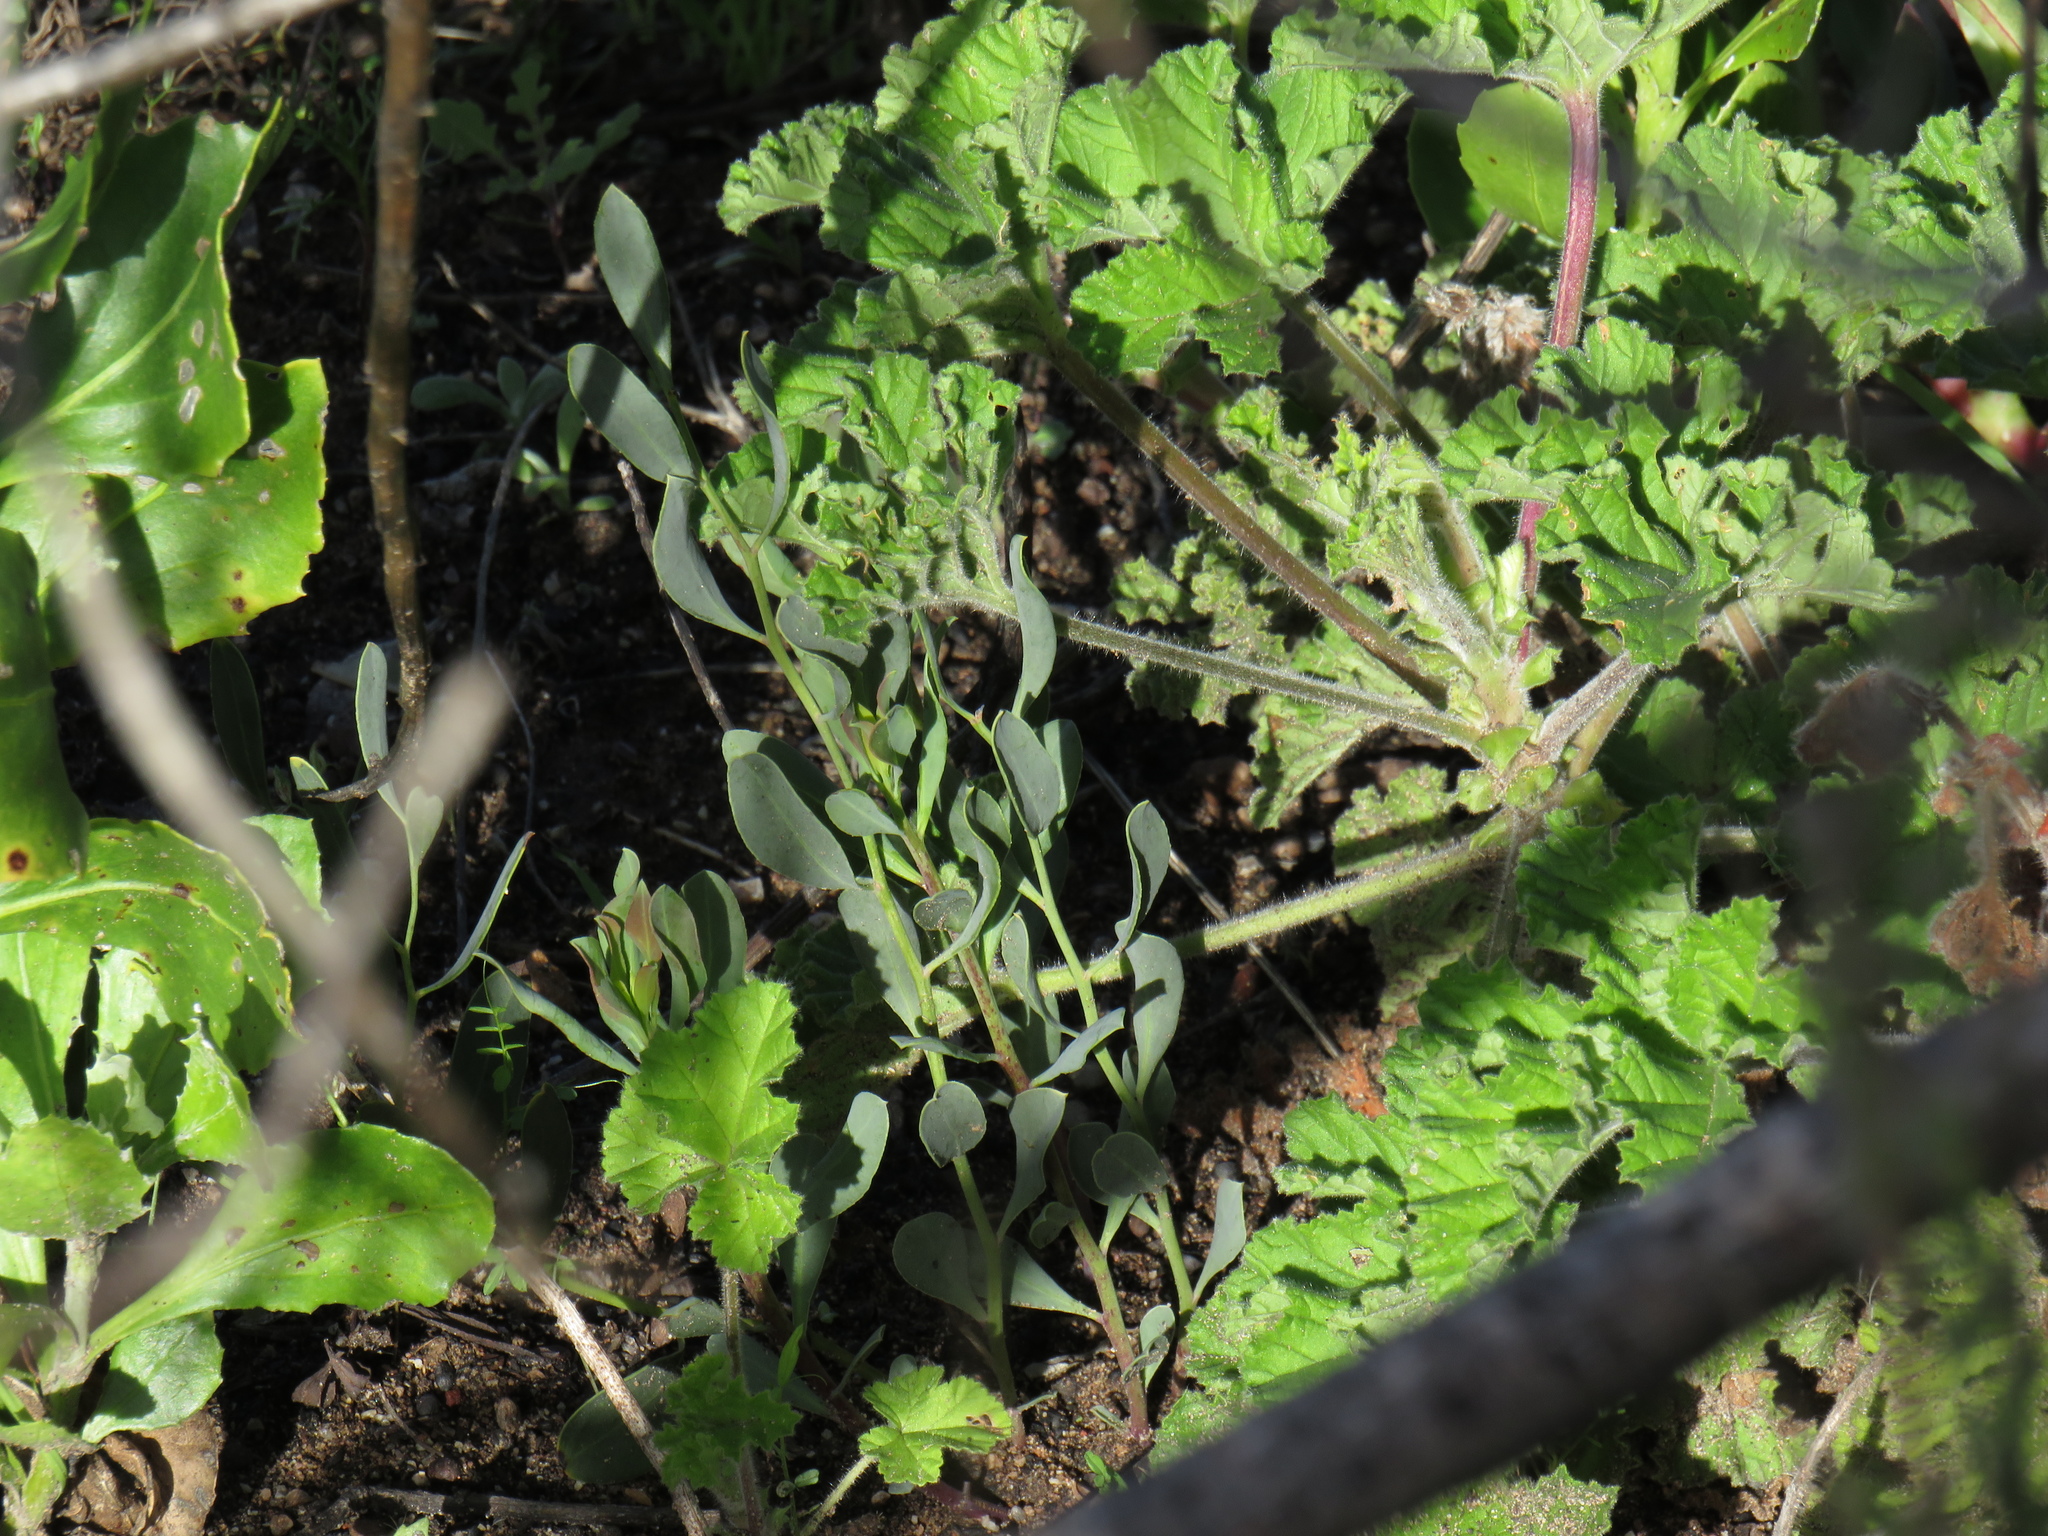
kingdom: Plantae
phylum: Tracheophyta
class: Magnoliopsida
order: Solanales
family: Montiniaceae
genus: Montinia
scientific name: Montinia caryophyllacea
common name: Wild clove-bush
